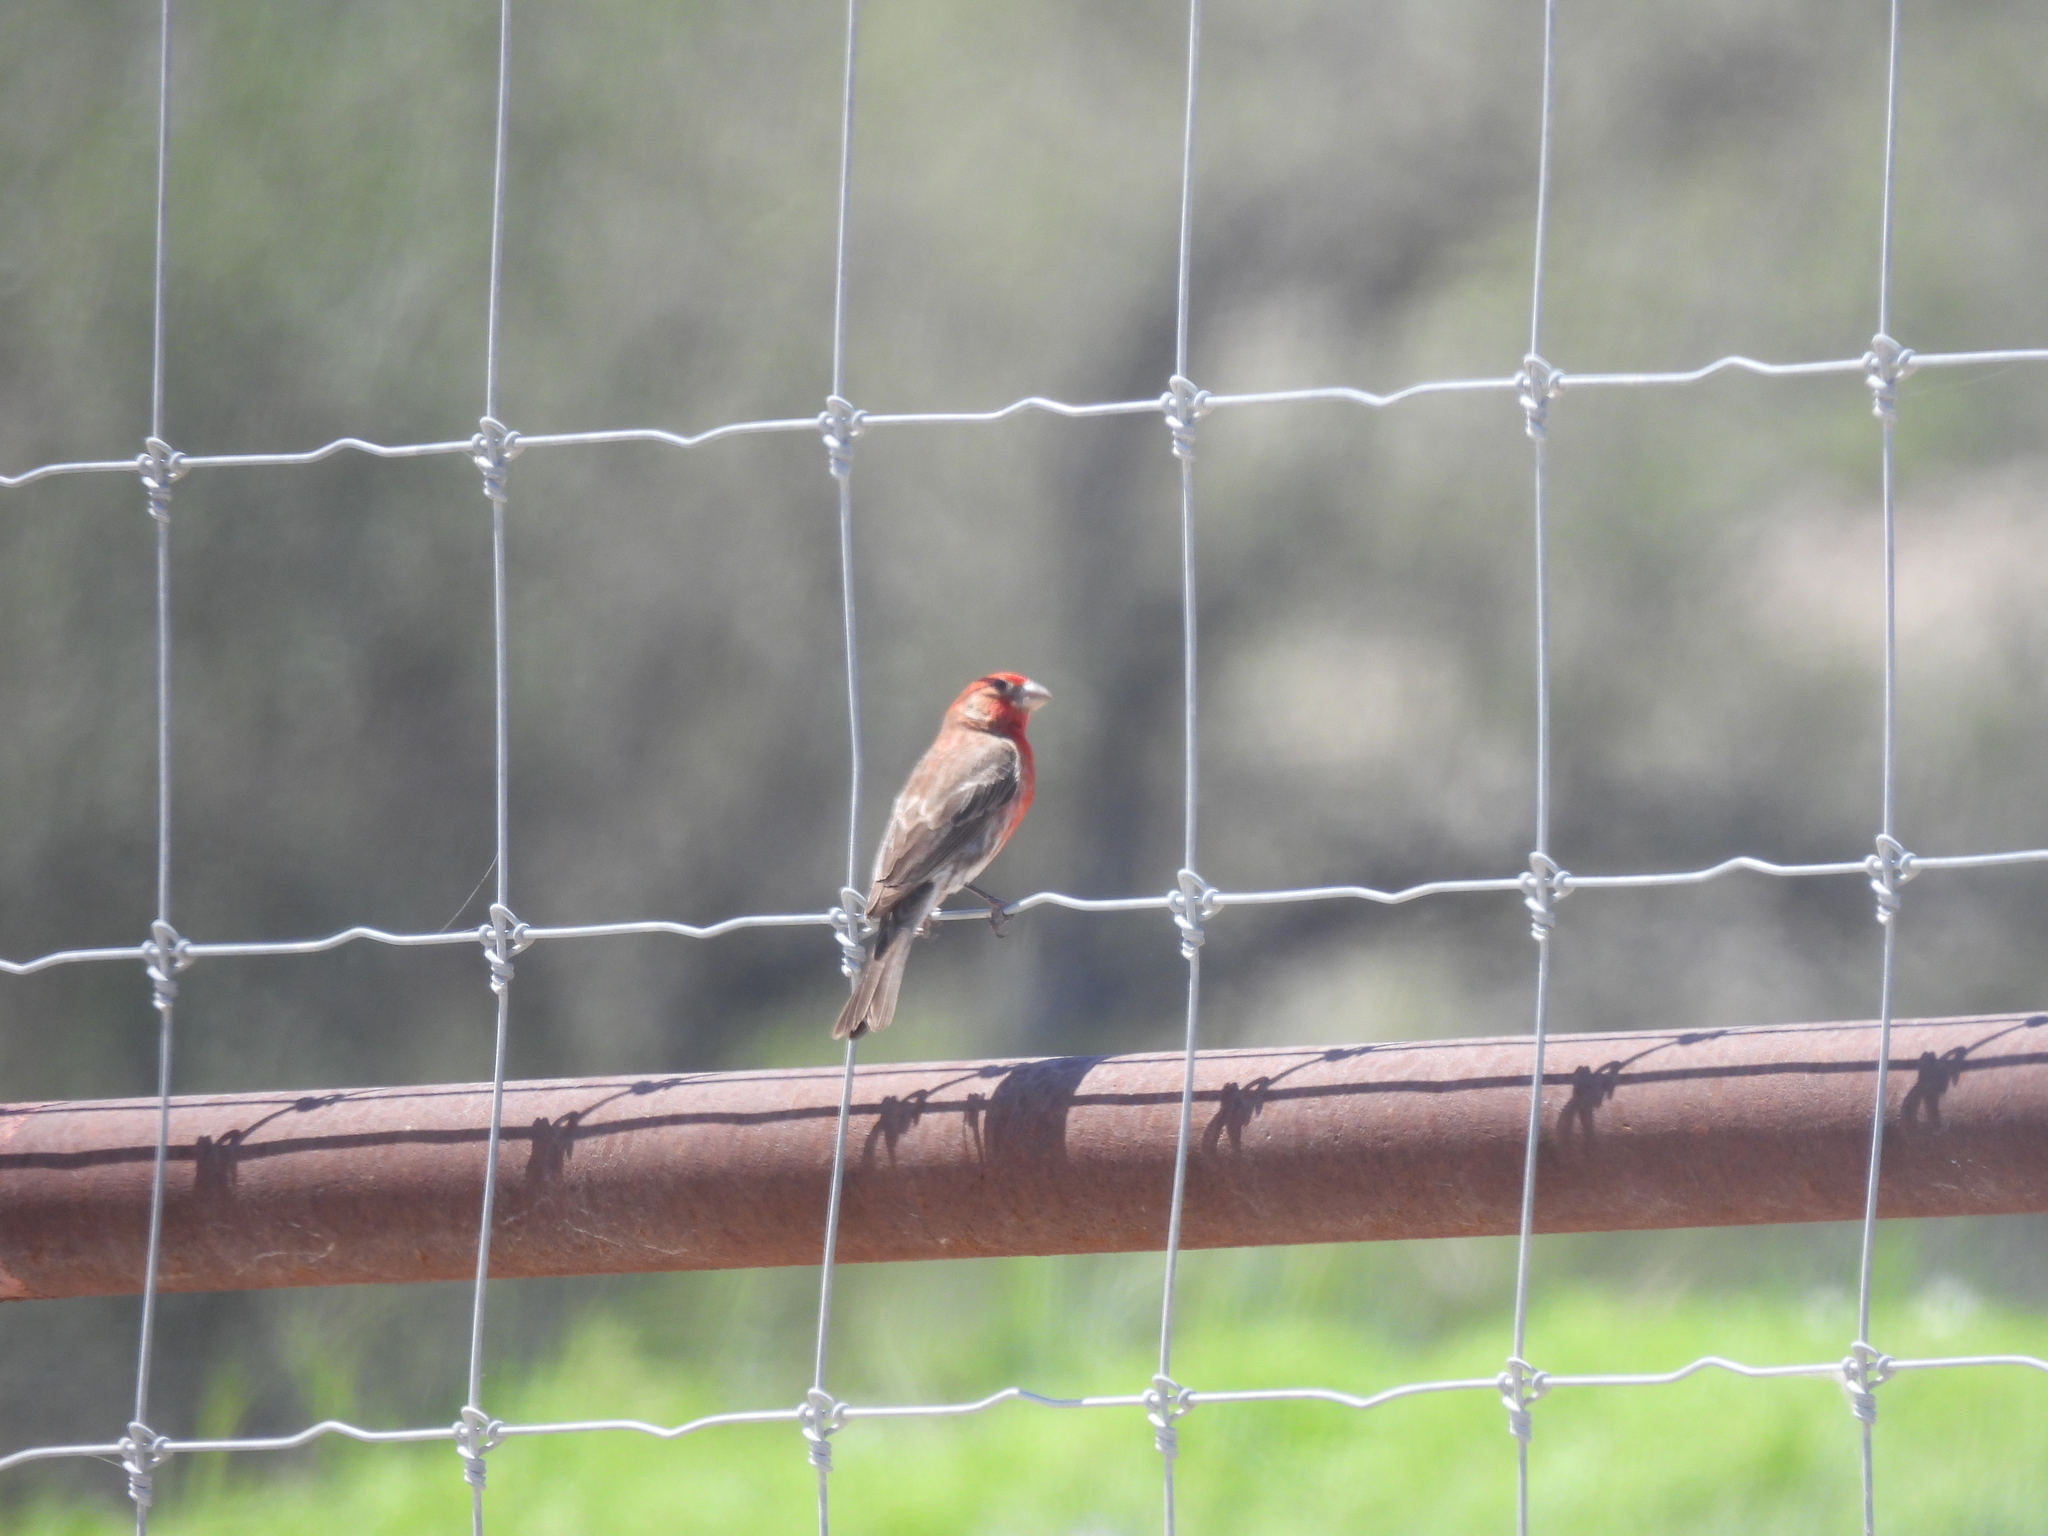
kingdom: Animalia
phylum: Chordata
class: Aves
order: Passeriformes
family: Fringillidae
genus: Haemorhous
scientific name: Haemorhous mexicanus
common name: House finch
